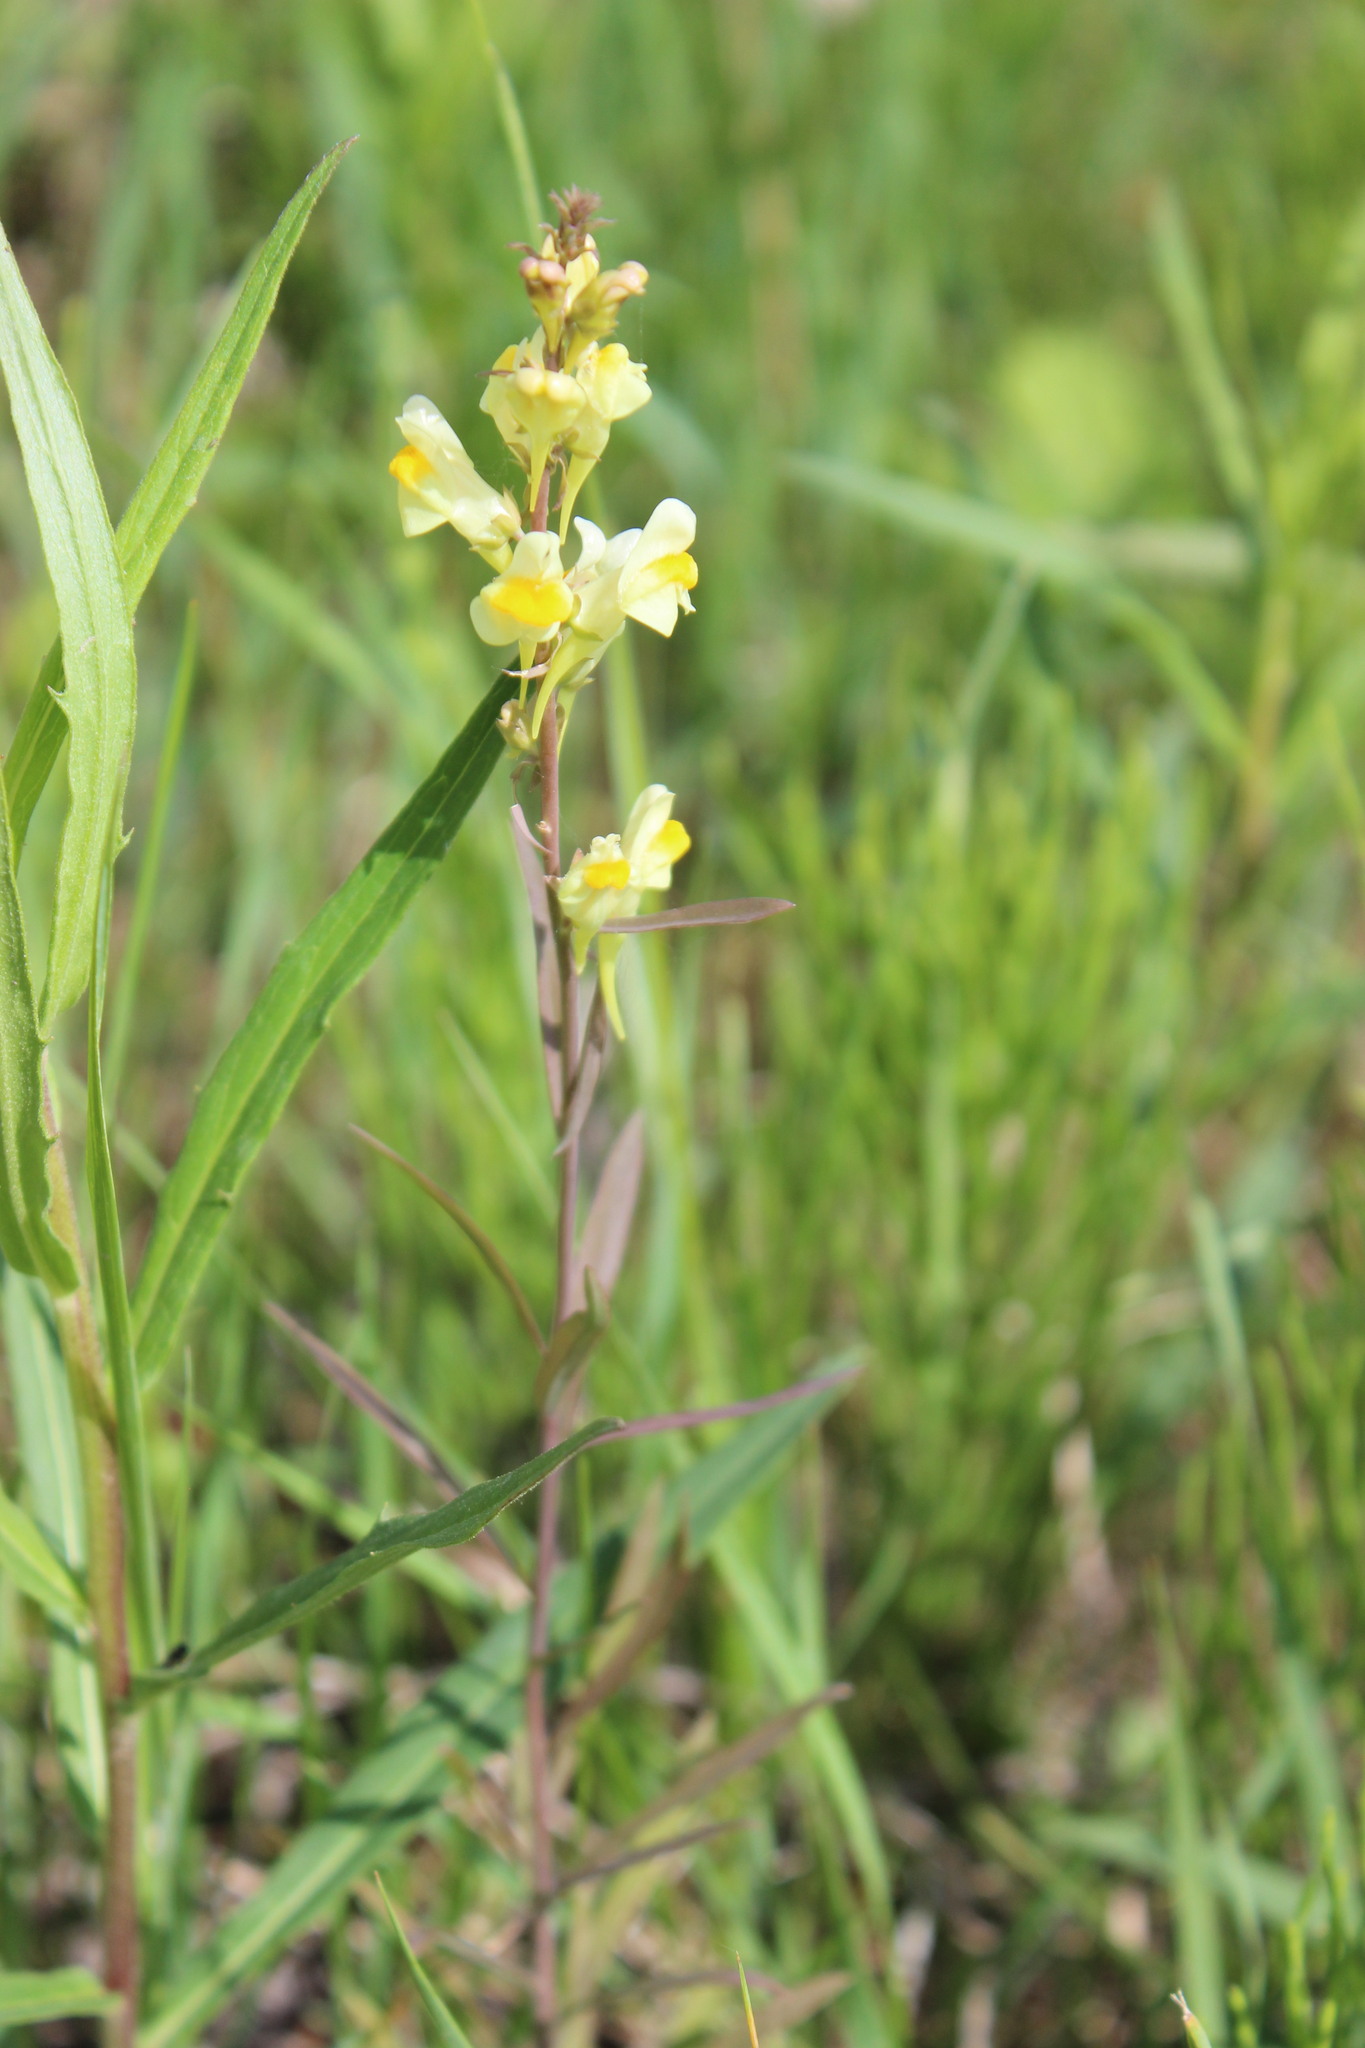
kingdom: Plantae
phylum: Tracheophyta
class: Magnoliopsida
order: Lamiales
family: Plantaginaceae
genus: Linaria
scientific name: Linaria vulgaris
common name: Butter and eggs
